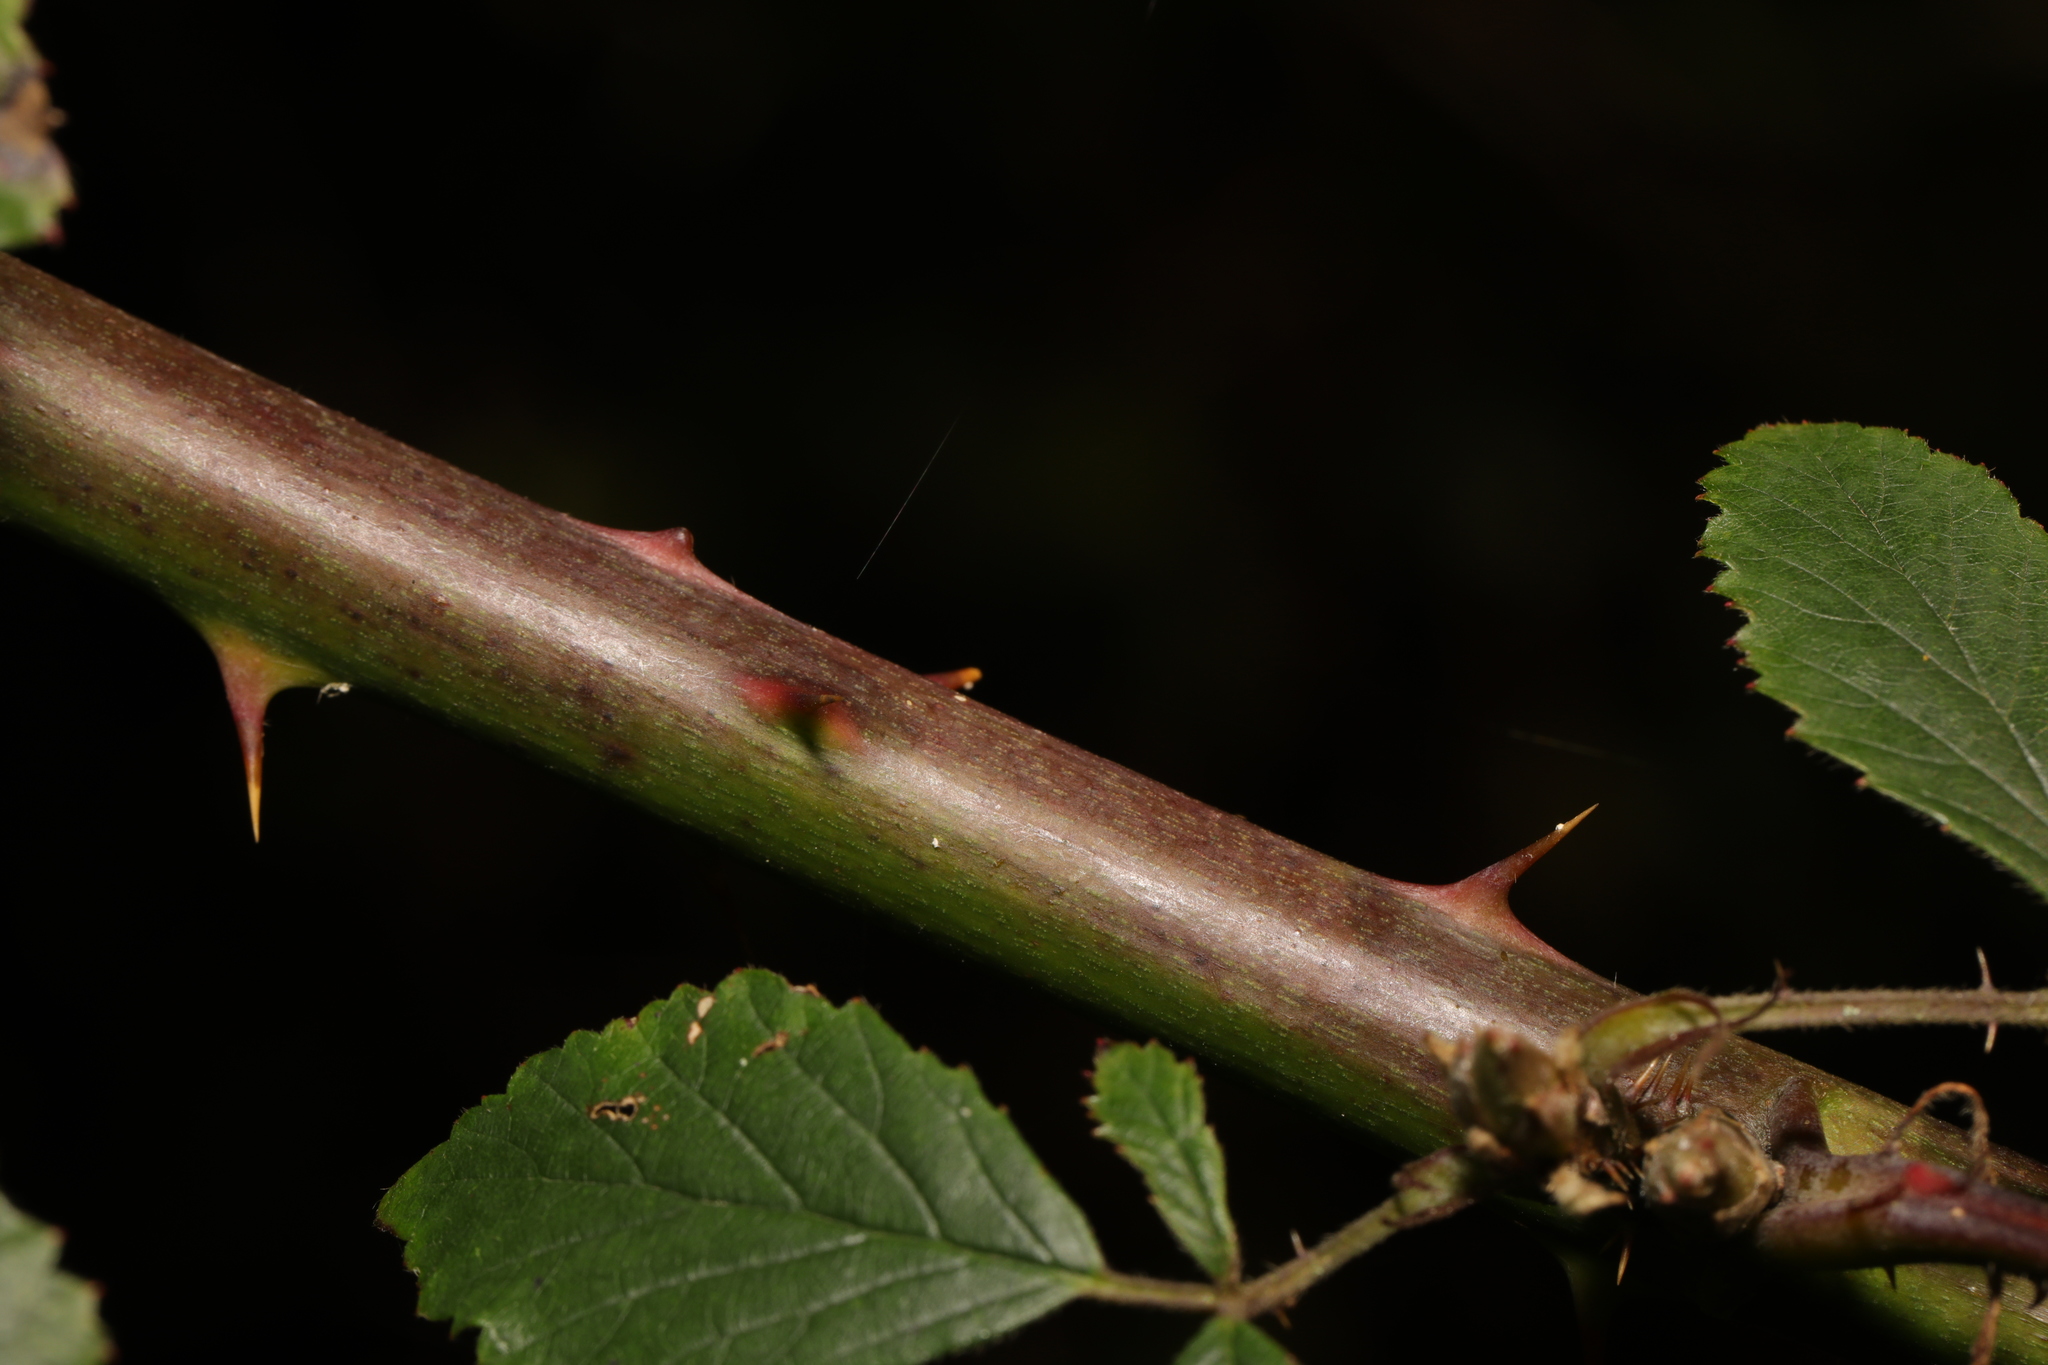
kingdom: Plantae
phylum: Tracheophyta
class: Magnoliopsida
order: Rosales
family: Rosaceae
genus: Rubus
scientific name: Rubus lindleyanus
